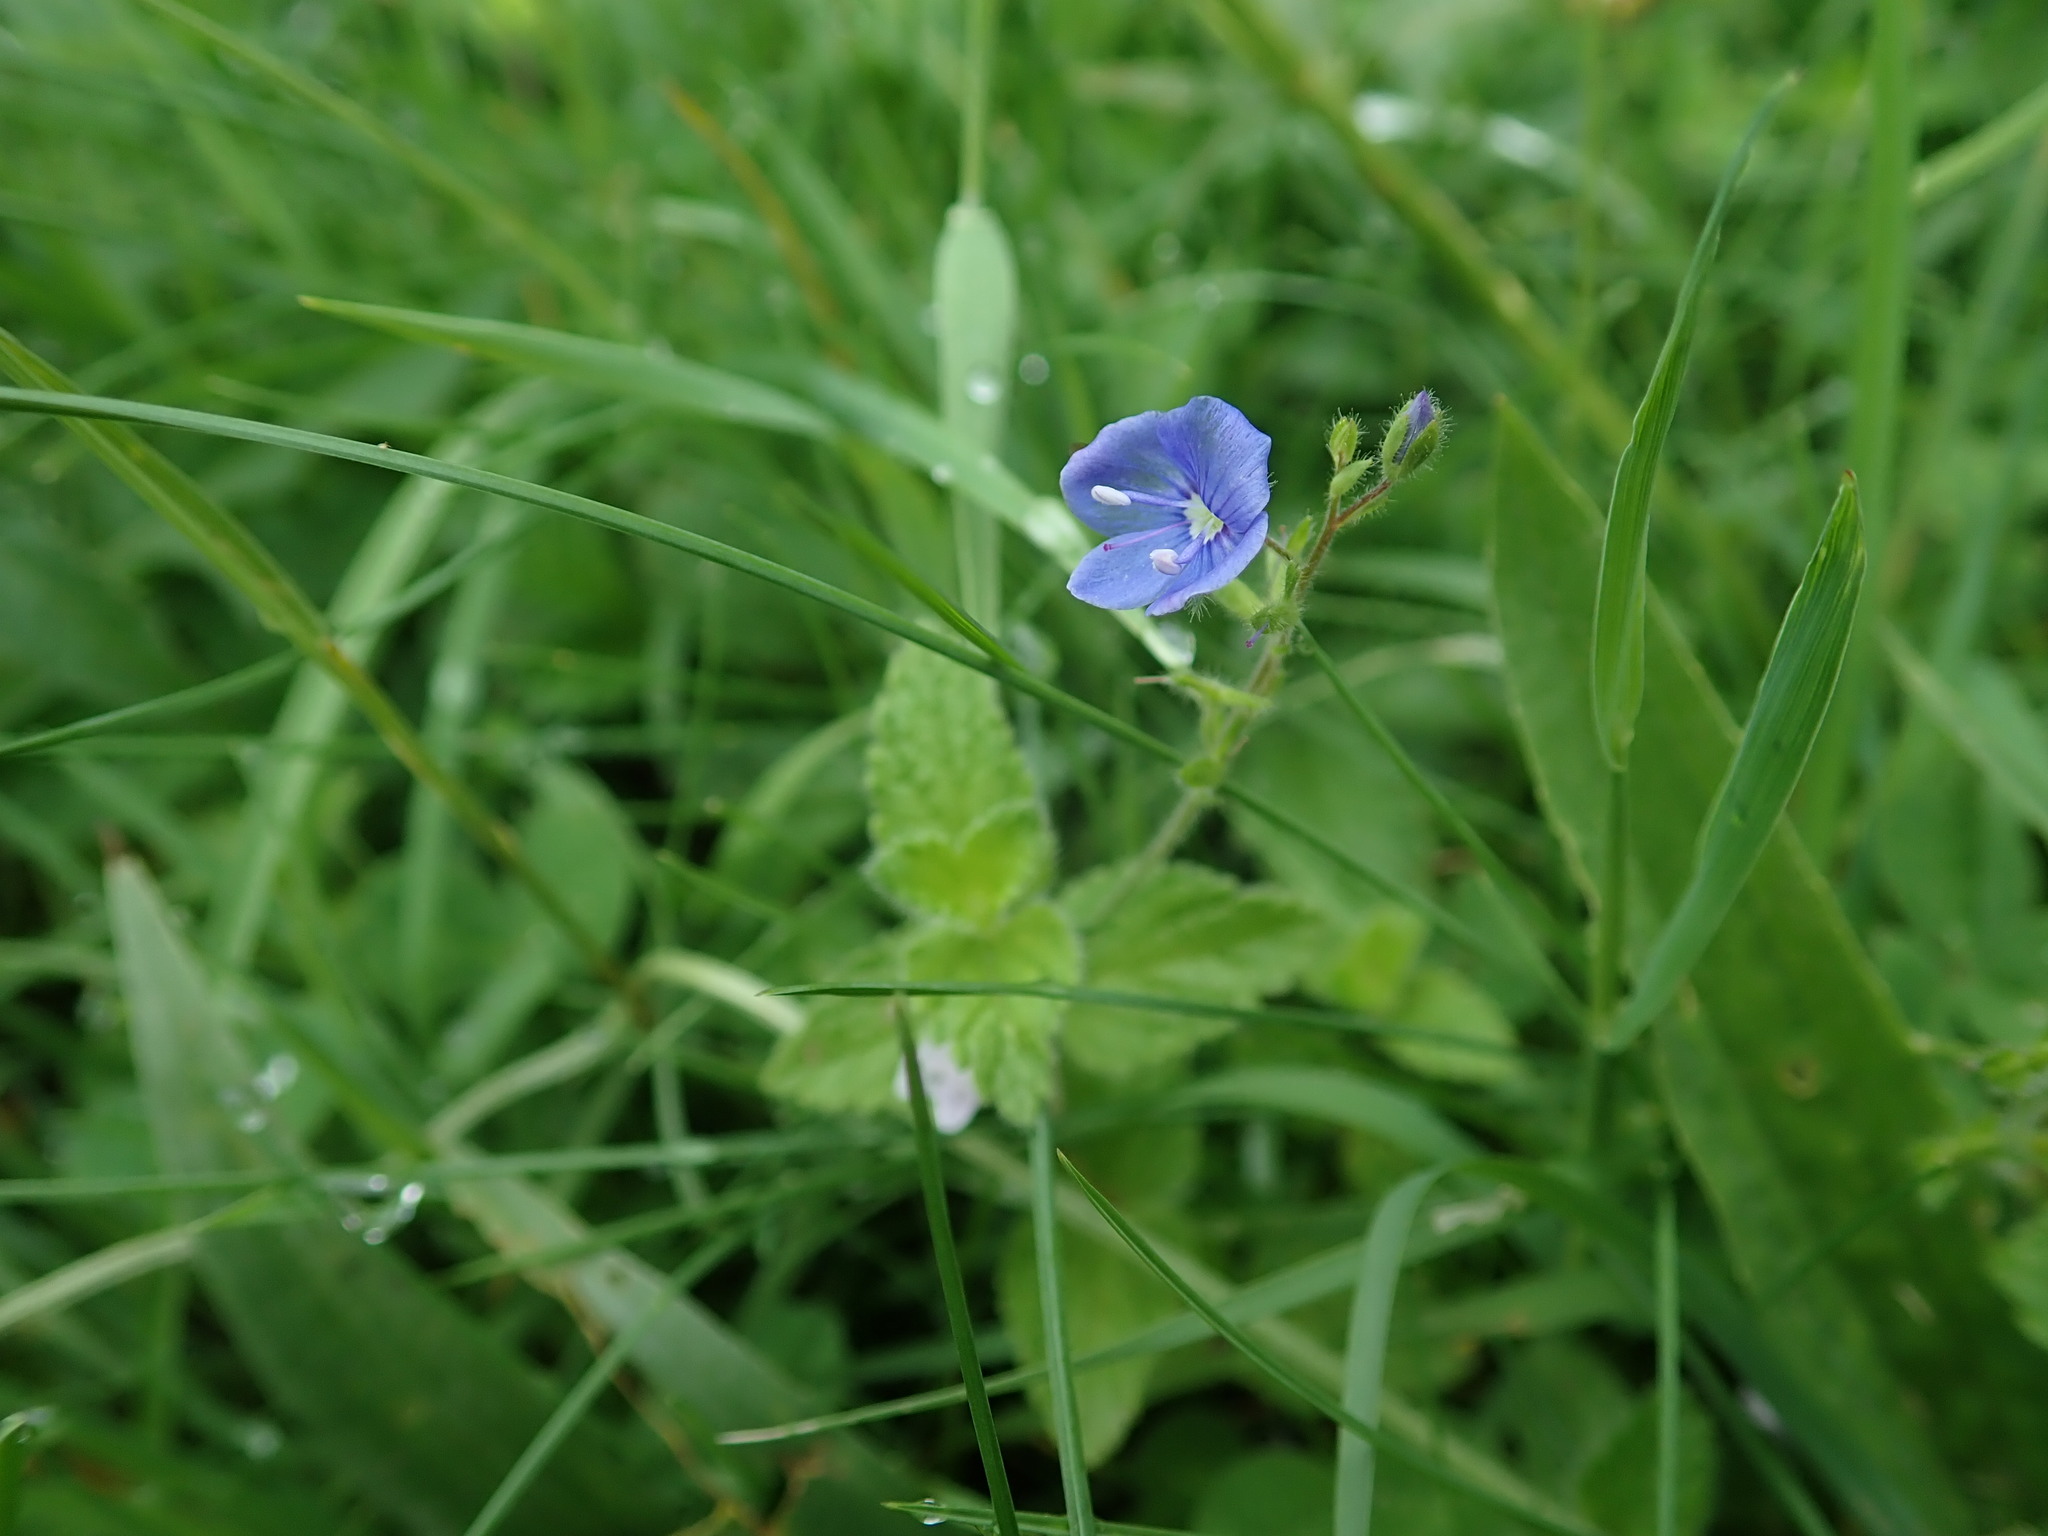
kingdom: Plantae
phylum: Tracheophyta
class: Magnoliopsida
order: Lamiales
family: Plantaginaceae
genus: Veronica
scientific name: Veronica chamaedrys
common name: Germander speedwell
